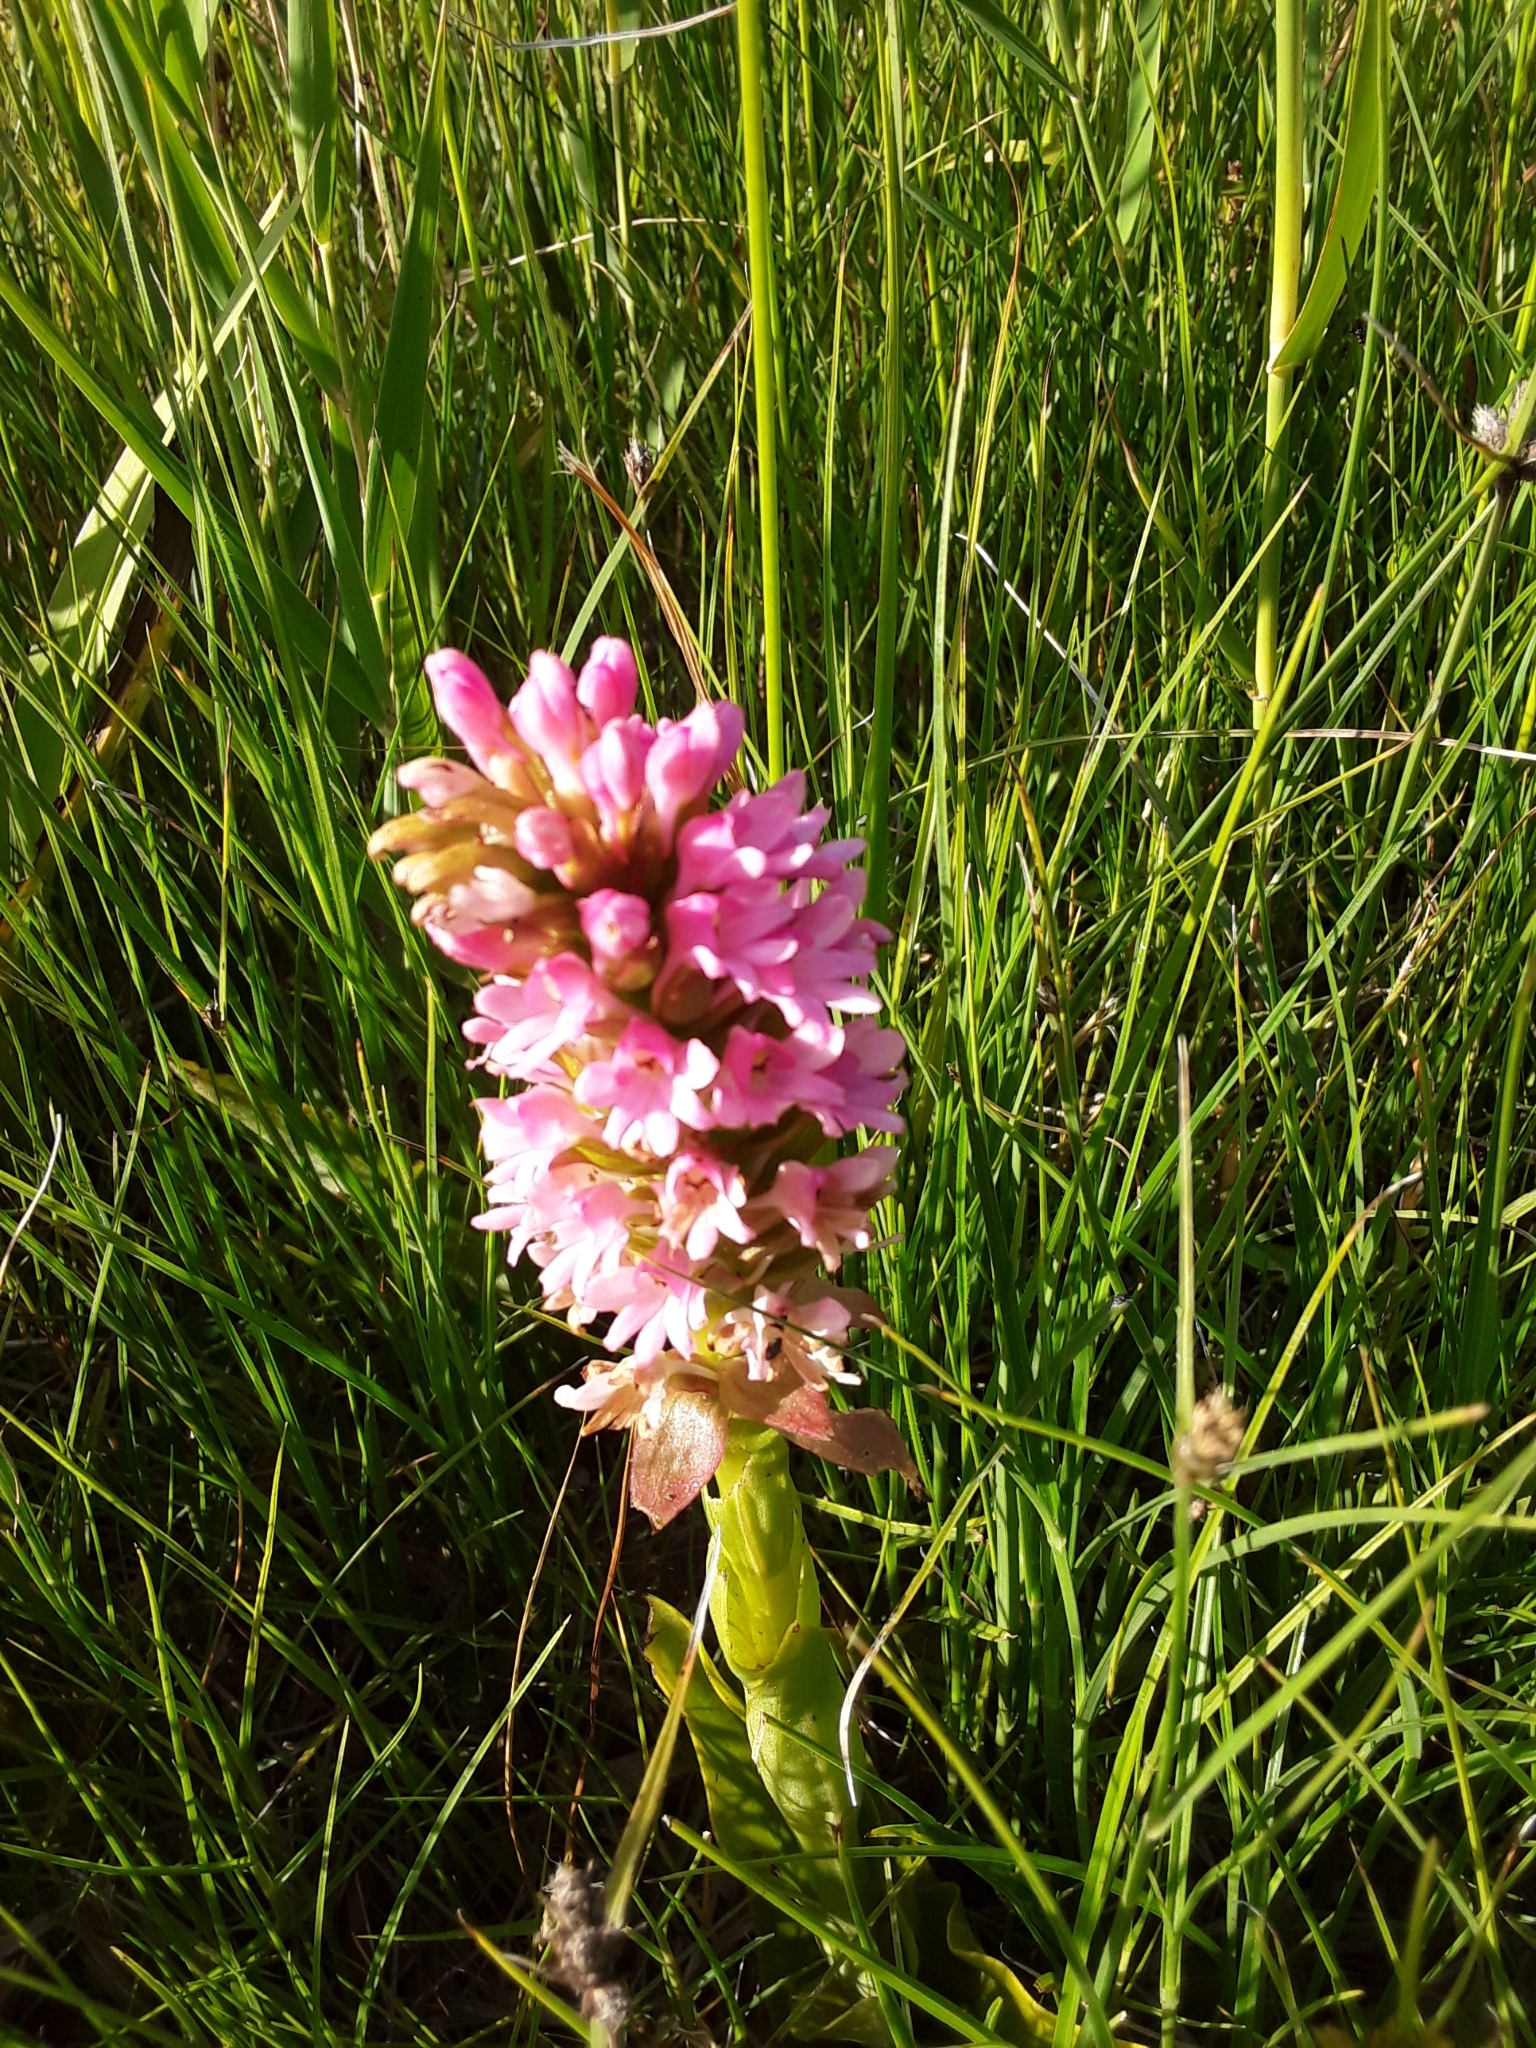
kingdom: Plantae
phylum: Tracheophyta
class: Liliopsida
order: Asparagales
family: Orchidaceae
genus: Satyrium
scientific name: Satyrium hallackii
